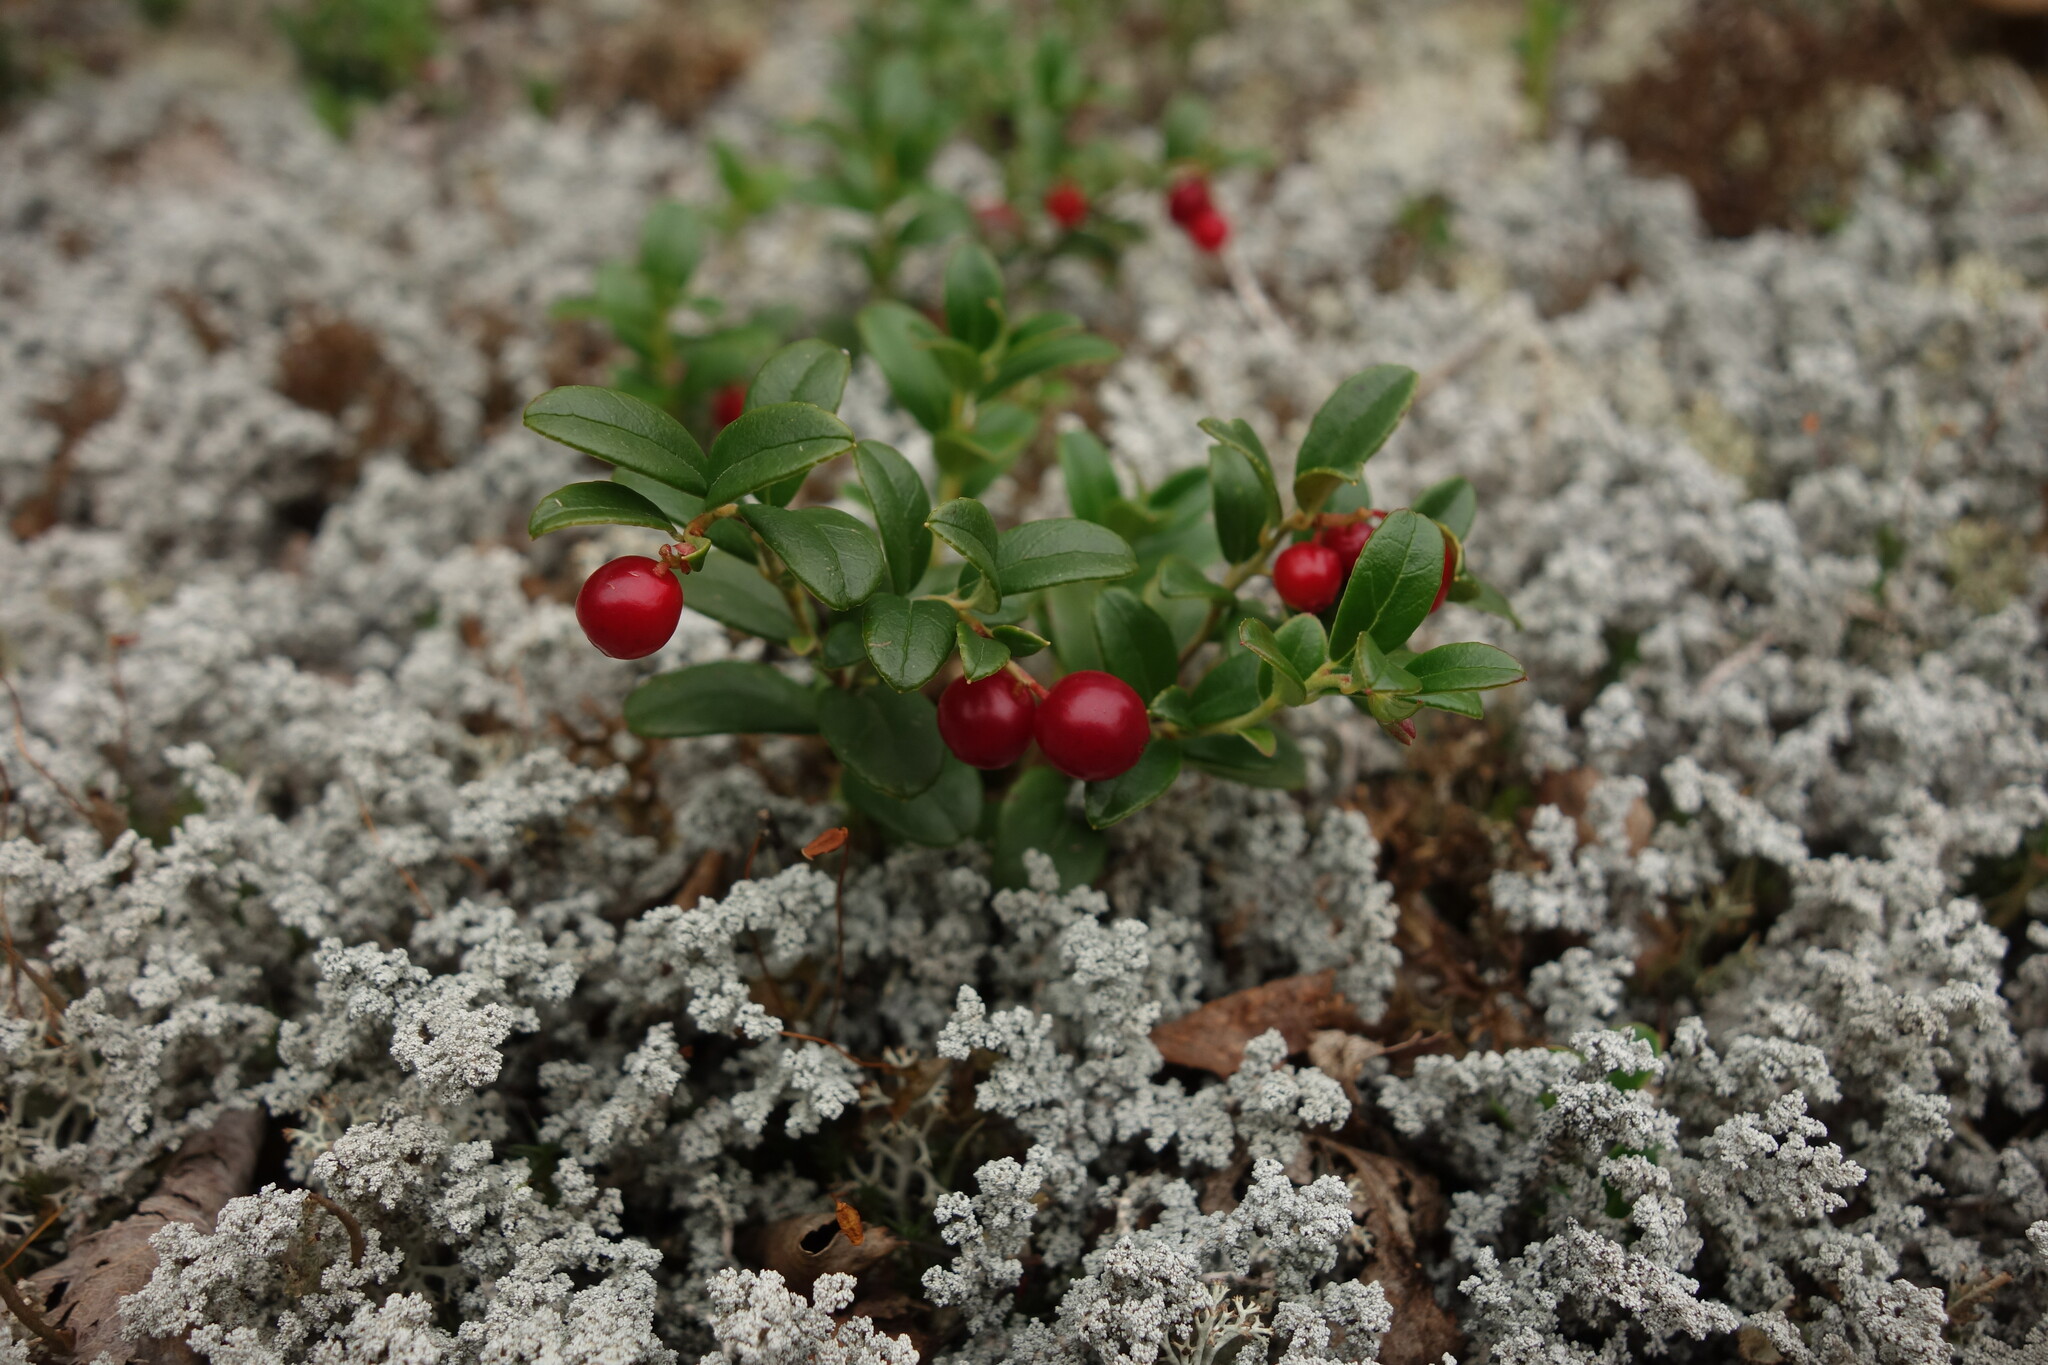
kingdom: Plantae
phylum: Tracheophyta
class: Magnoliopsida
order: Ericales
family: Ericaceae
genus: Vaccinium
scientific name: Vaccinium vitis-idaea
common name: Cowberry
